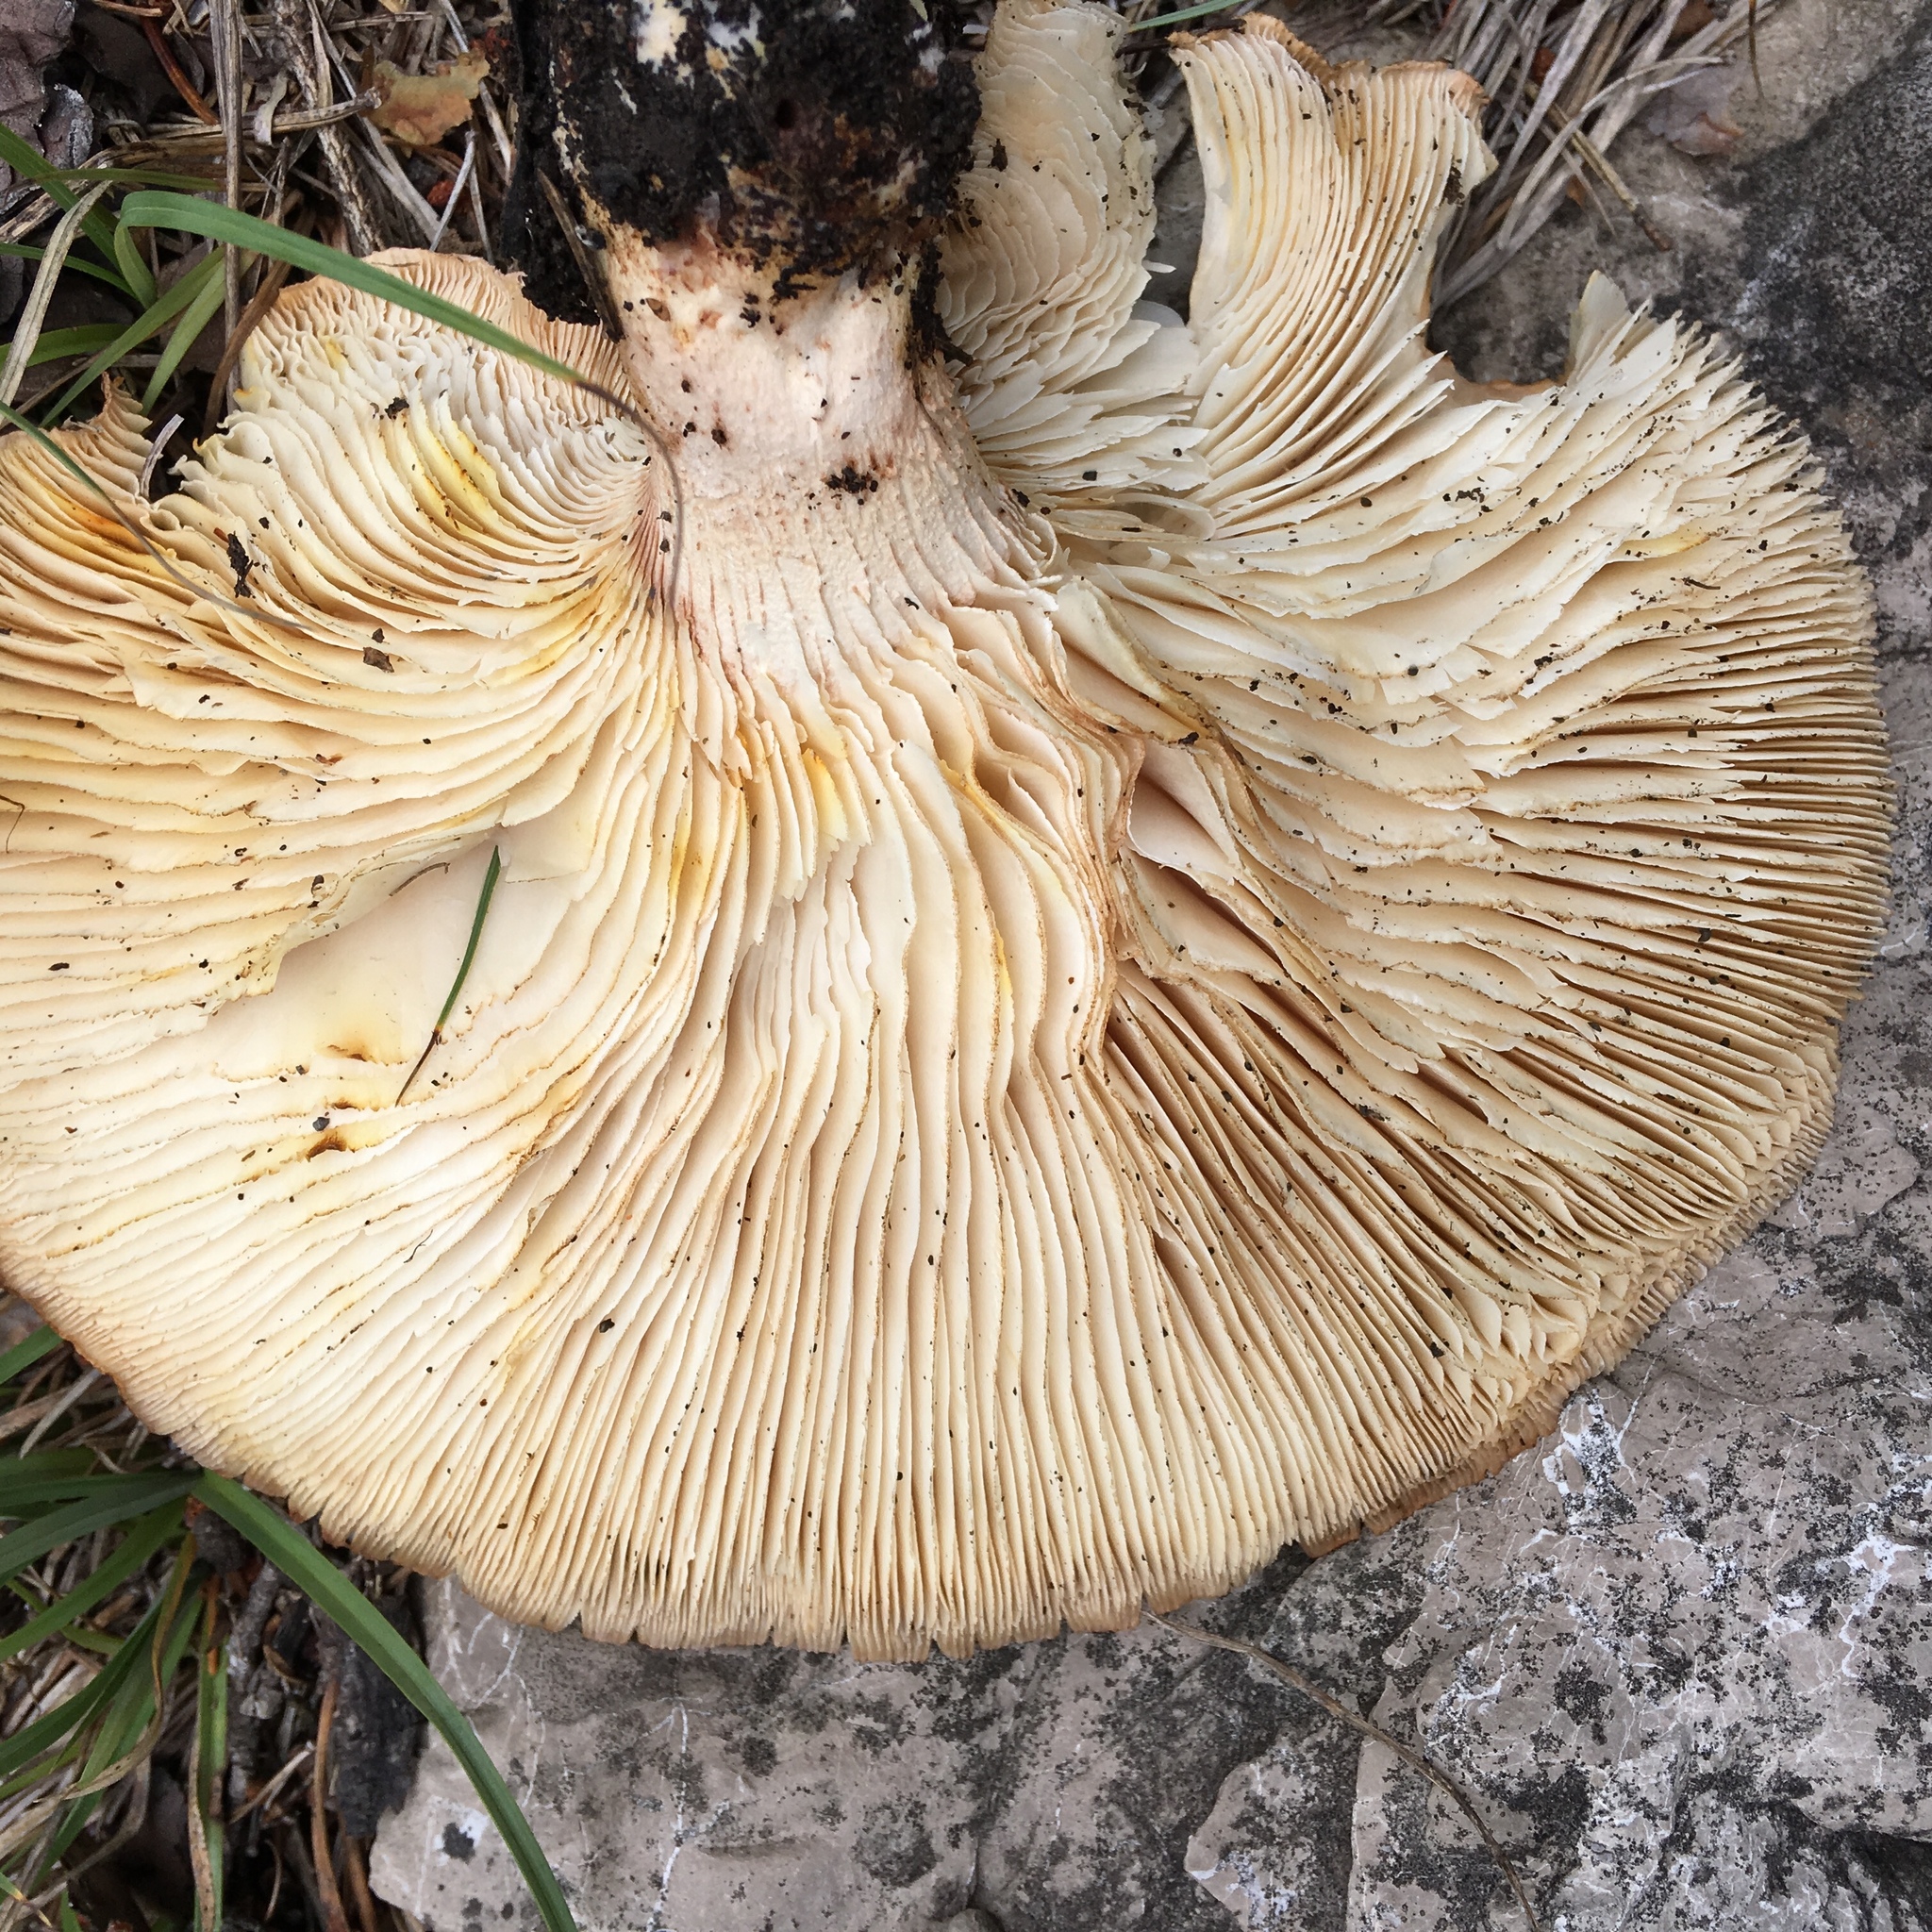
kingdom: Fungi
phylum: Basidiomycota
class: Agaricomycetes
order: Gloeophyllales
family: Gloeophyllaceae
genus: Neolentinus
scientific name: Neolentinus lepideus
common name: Scaly sawgill
